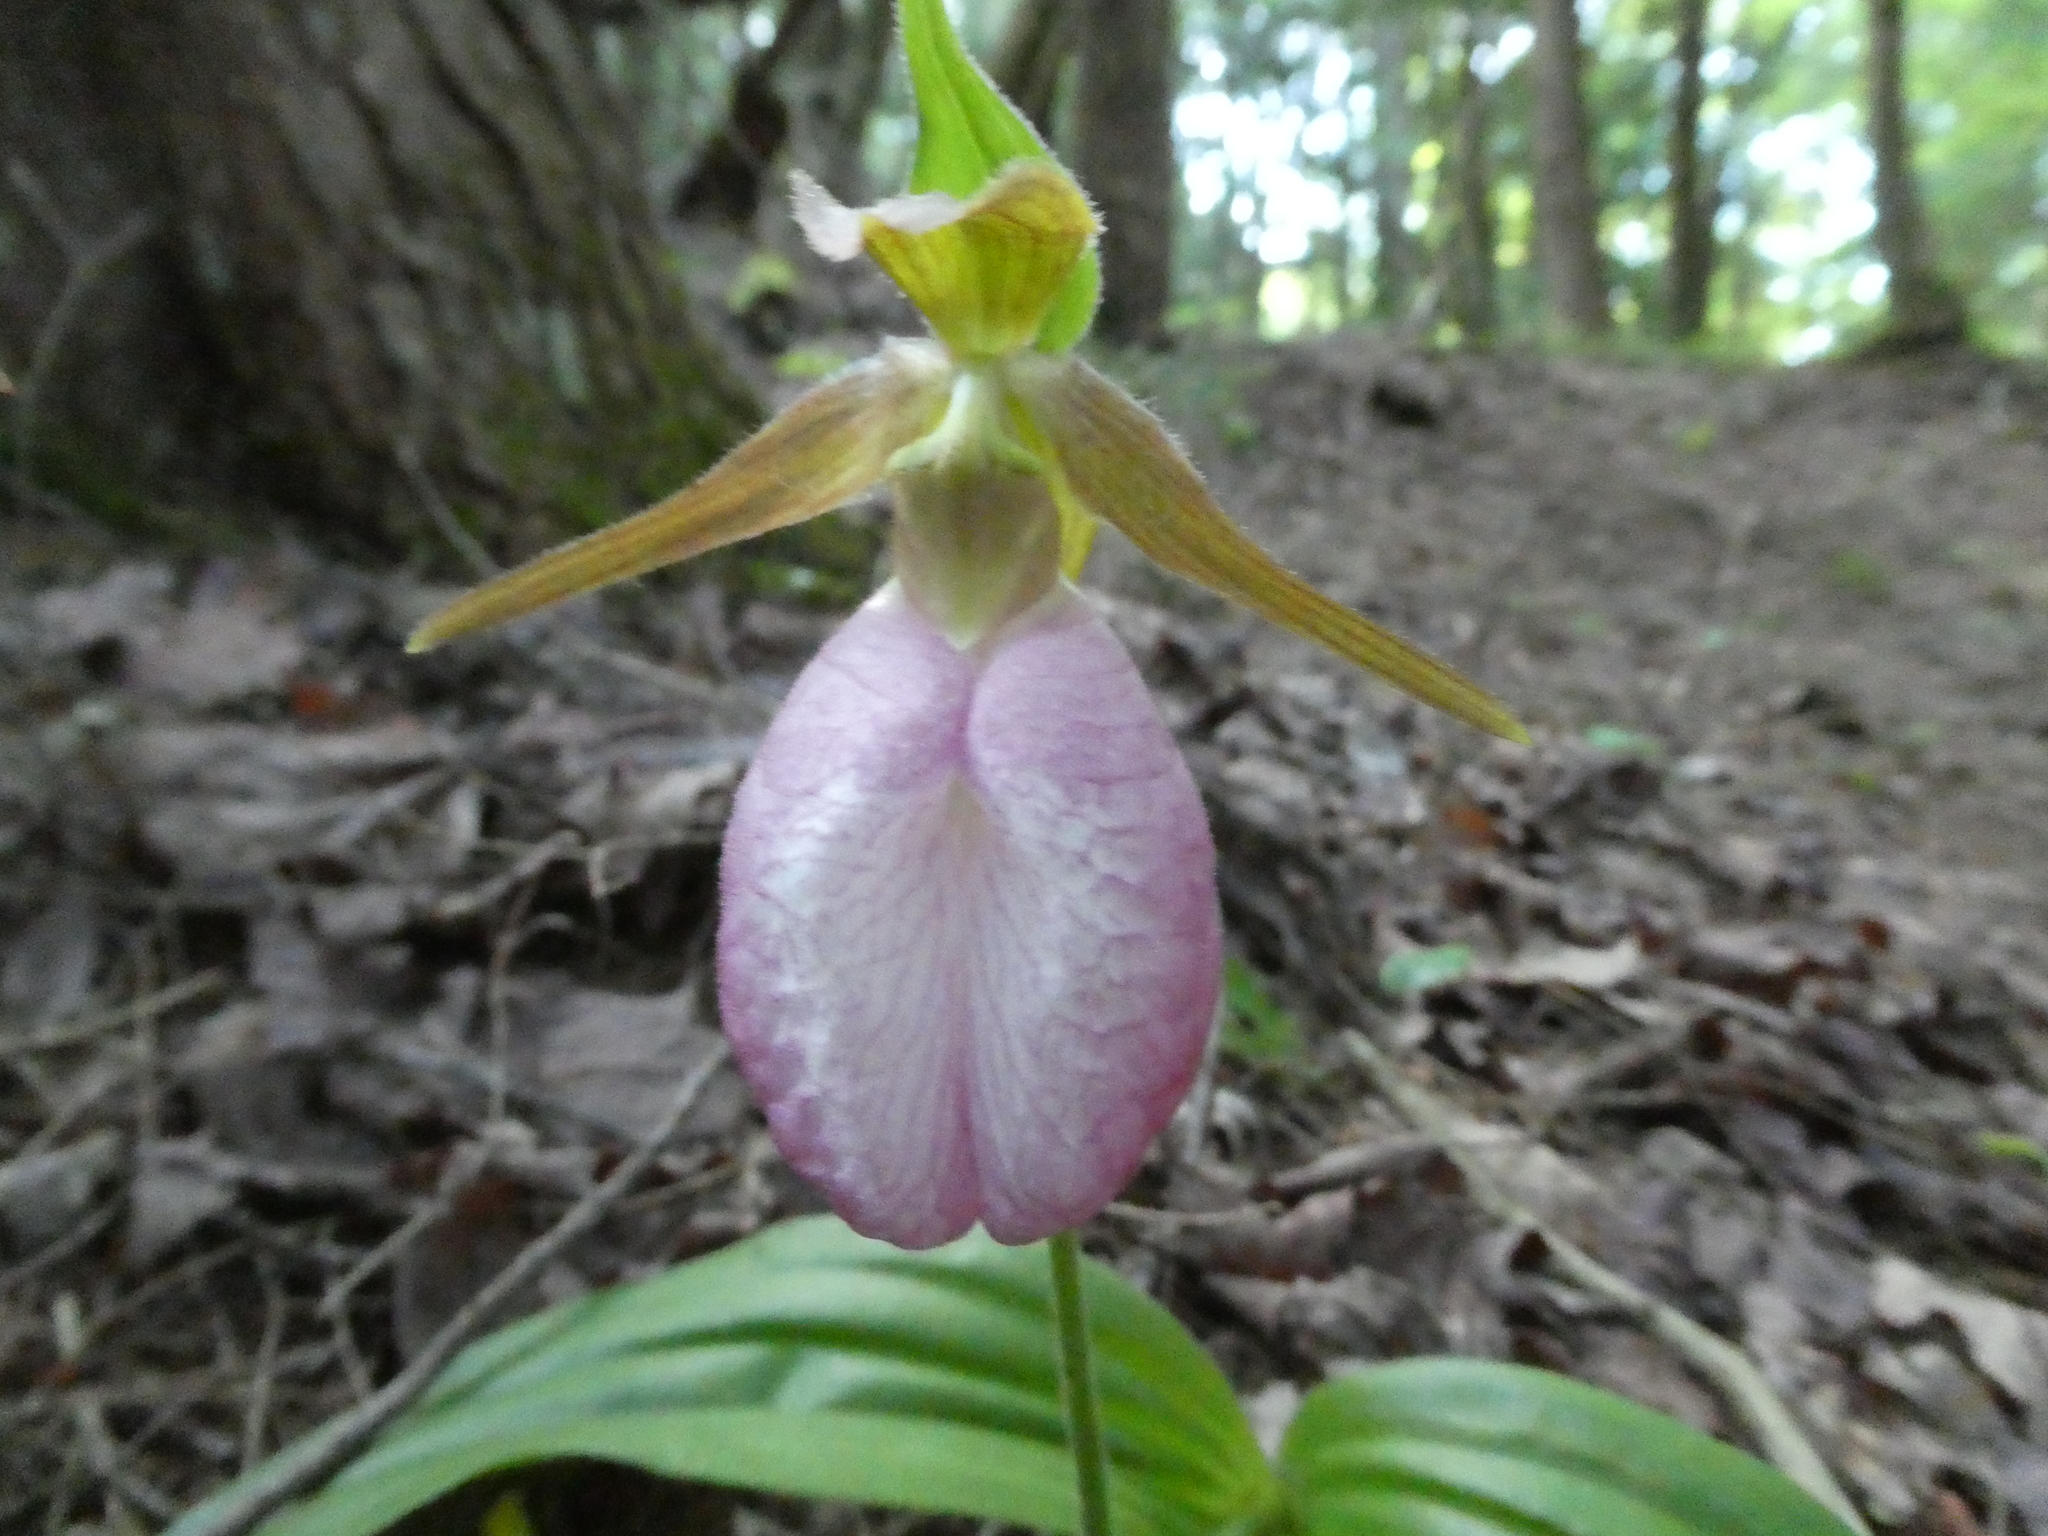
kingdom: Plantae
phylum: Tracheophyta
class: Liliopsida
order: Asparagales
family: Orchidaceae
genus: Cypripedium
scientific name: Cypripedium acaule
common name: Pink lady's-slipper
